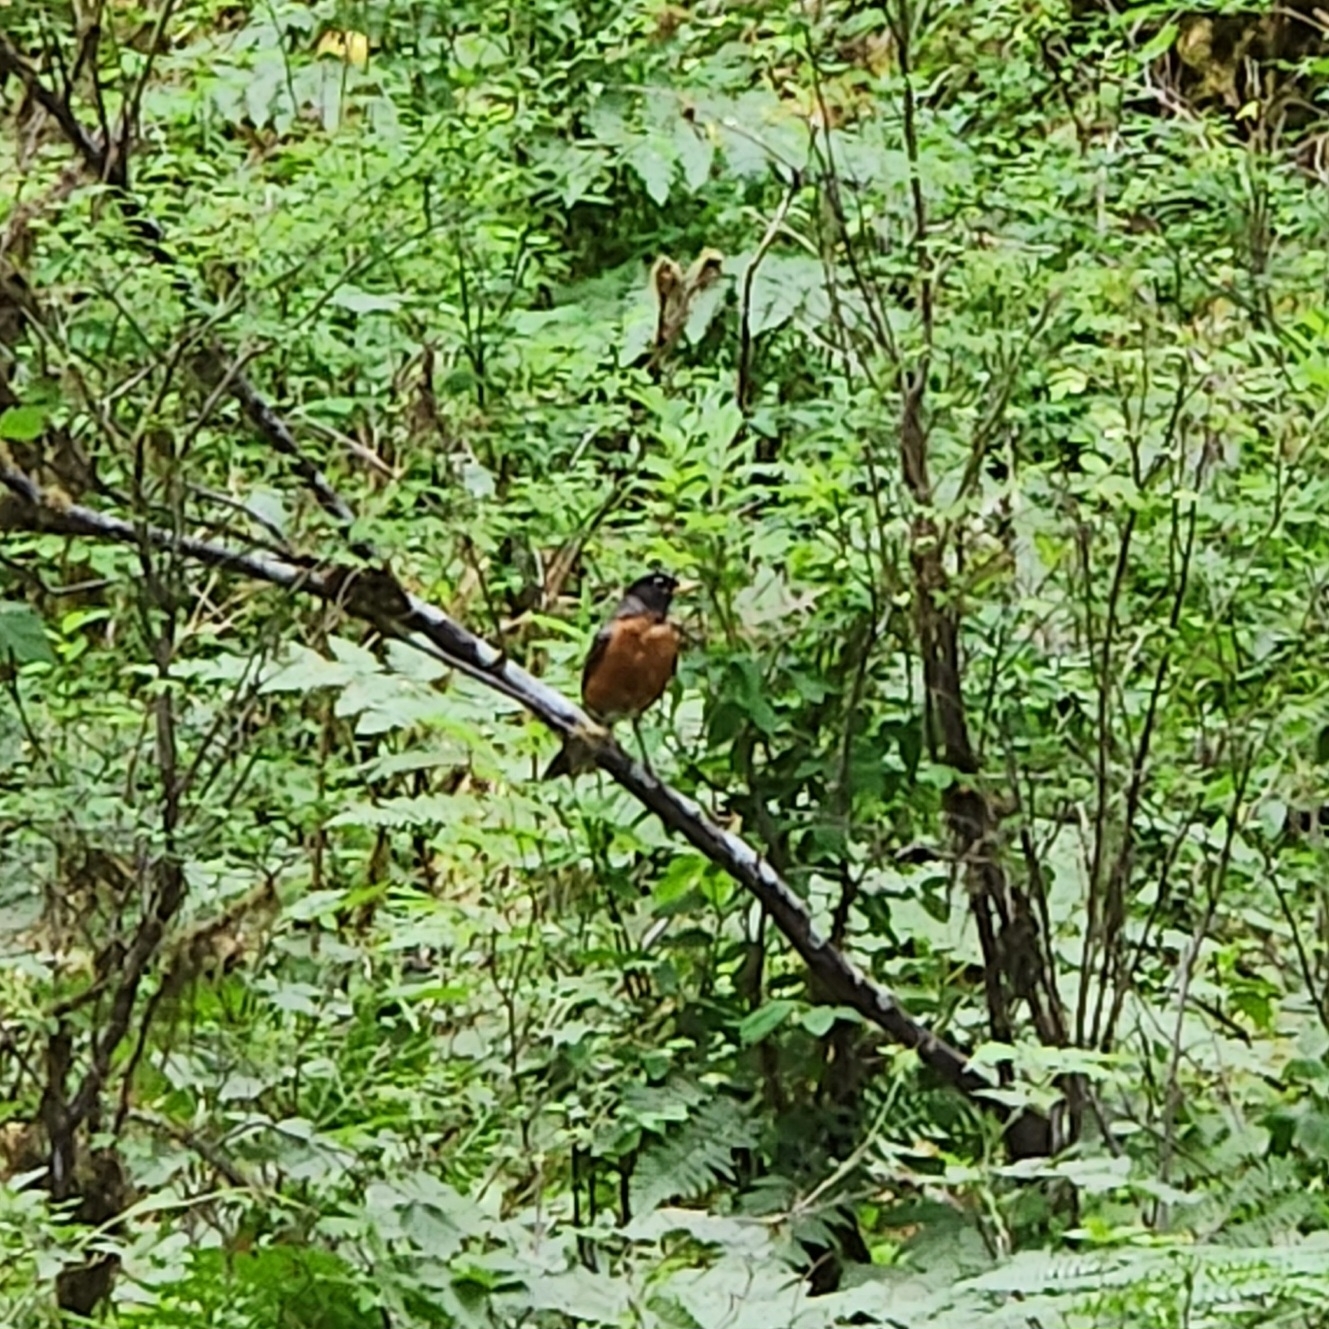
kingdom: Animalia
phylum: Chordata
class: Aves
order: Passeriformes
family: Turdidae
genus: Turdus
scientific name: Turdus migratorius
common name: American robin
